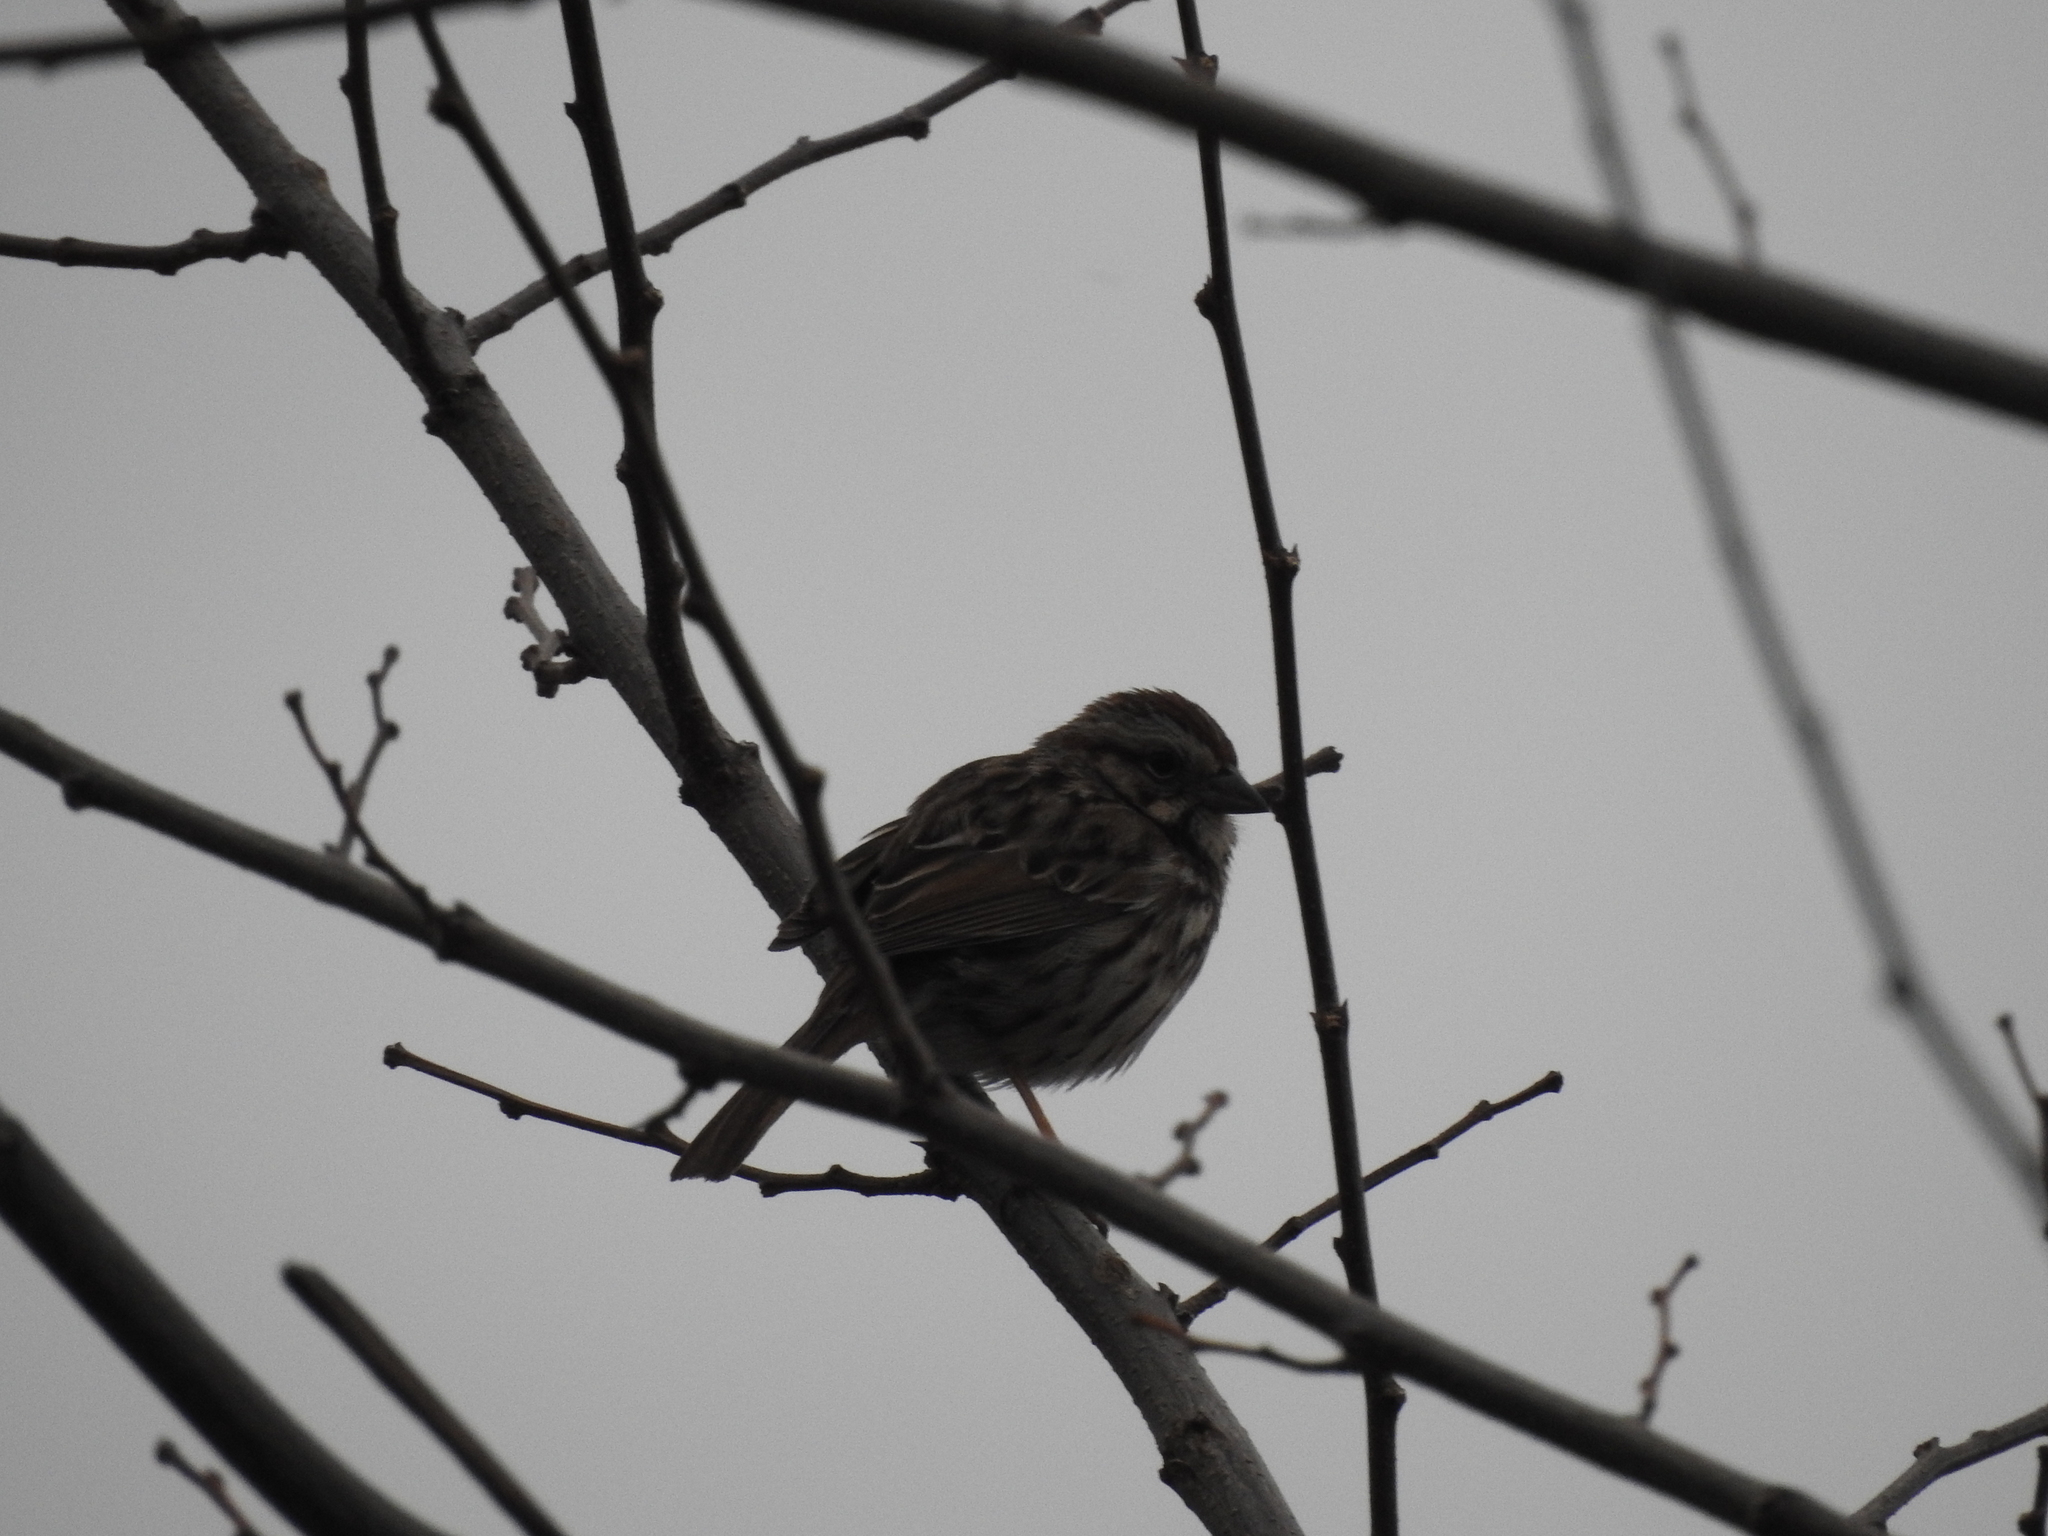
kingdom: Animalia
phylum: Chordata
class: Aves
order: Passeriformes
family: Passerellidae
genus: Melospiza
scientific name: Melospiza melodia
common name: Song sparrow
